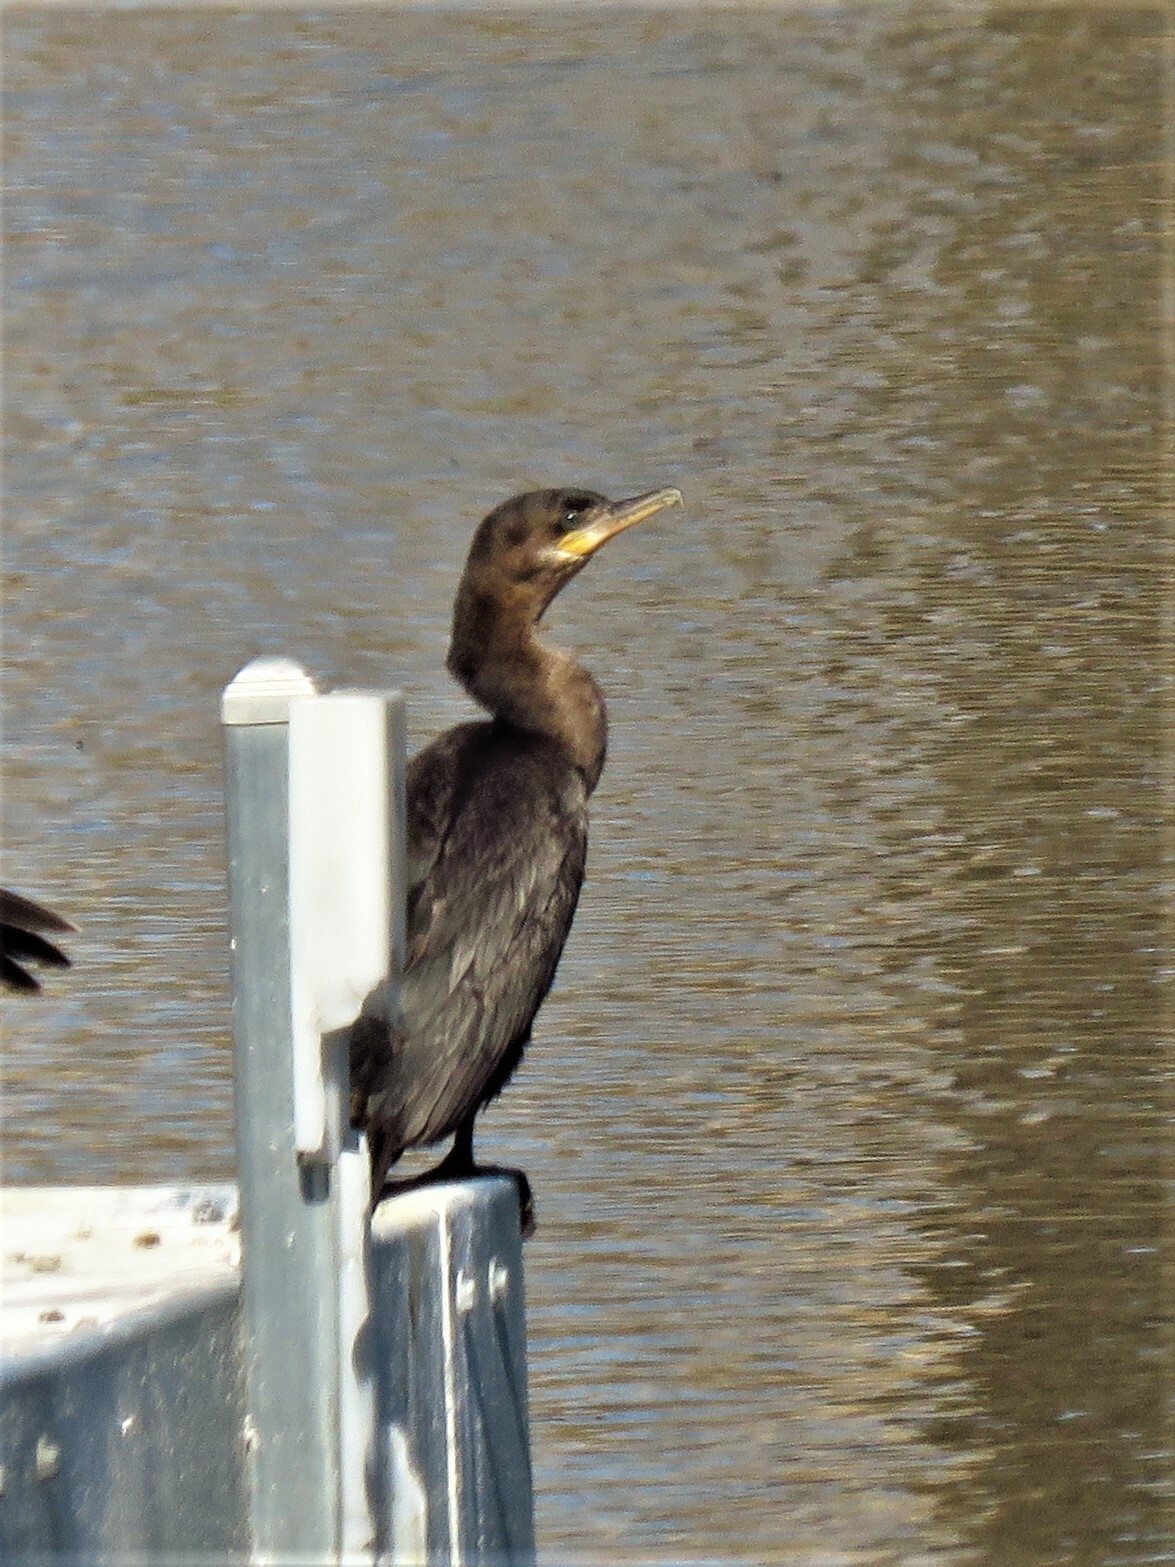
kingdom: Animalia
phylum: Chordata
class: Aves
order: Suliformes
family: Phalacrocoracidae
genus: Phalacrocorax
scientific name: Phalacrocorax brasilianus
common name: Neotropic cormorant
